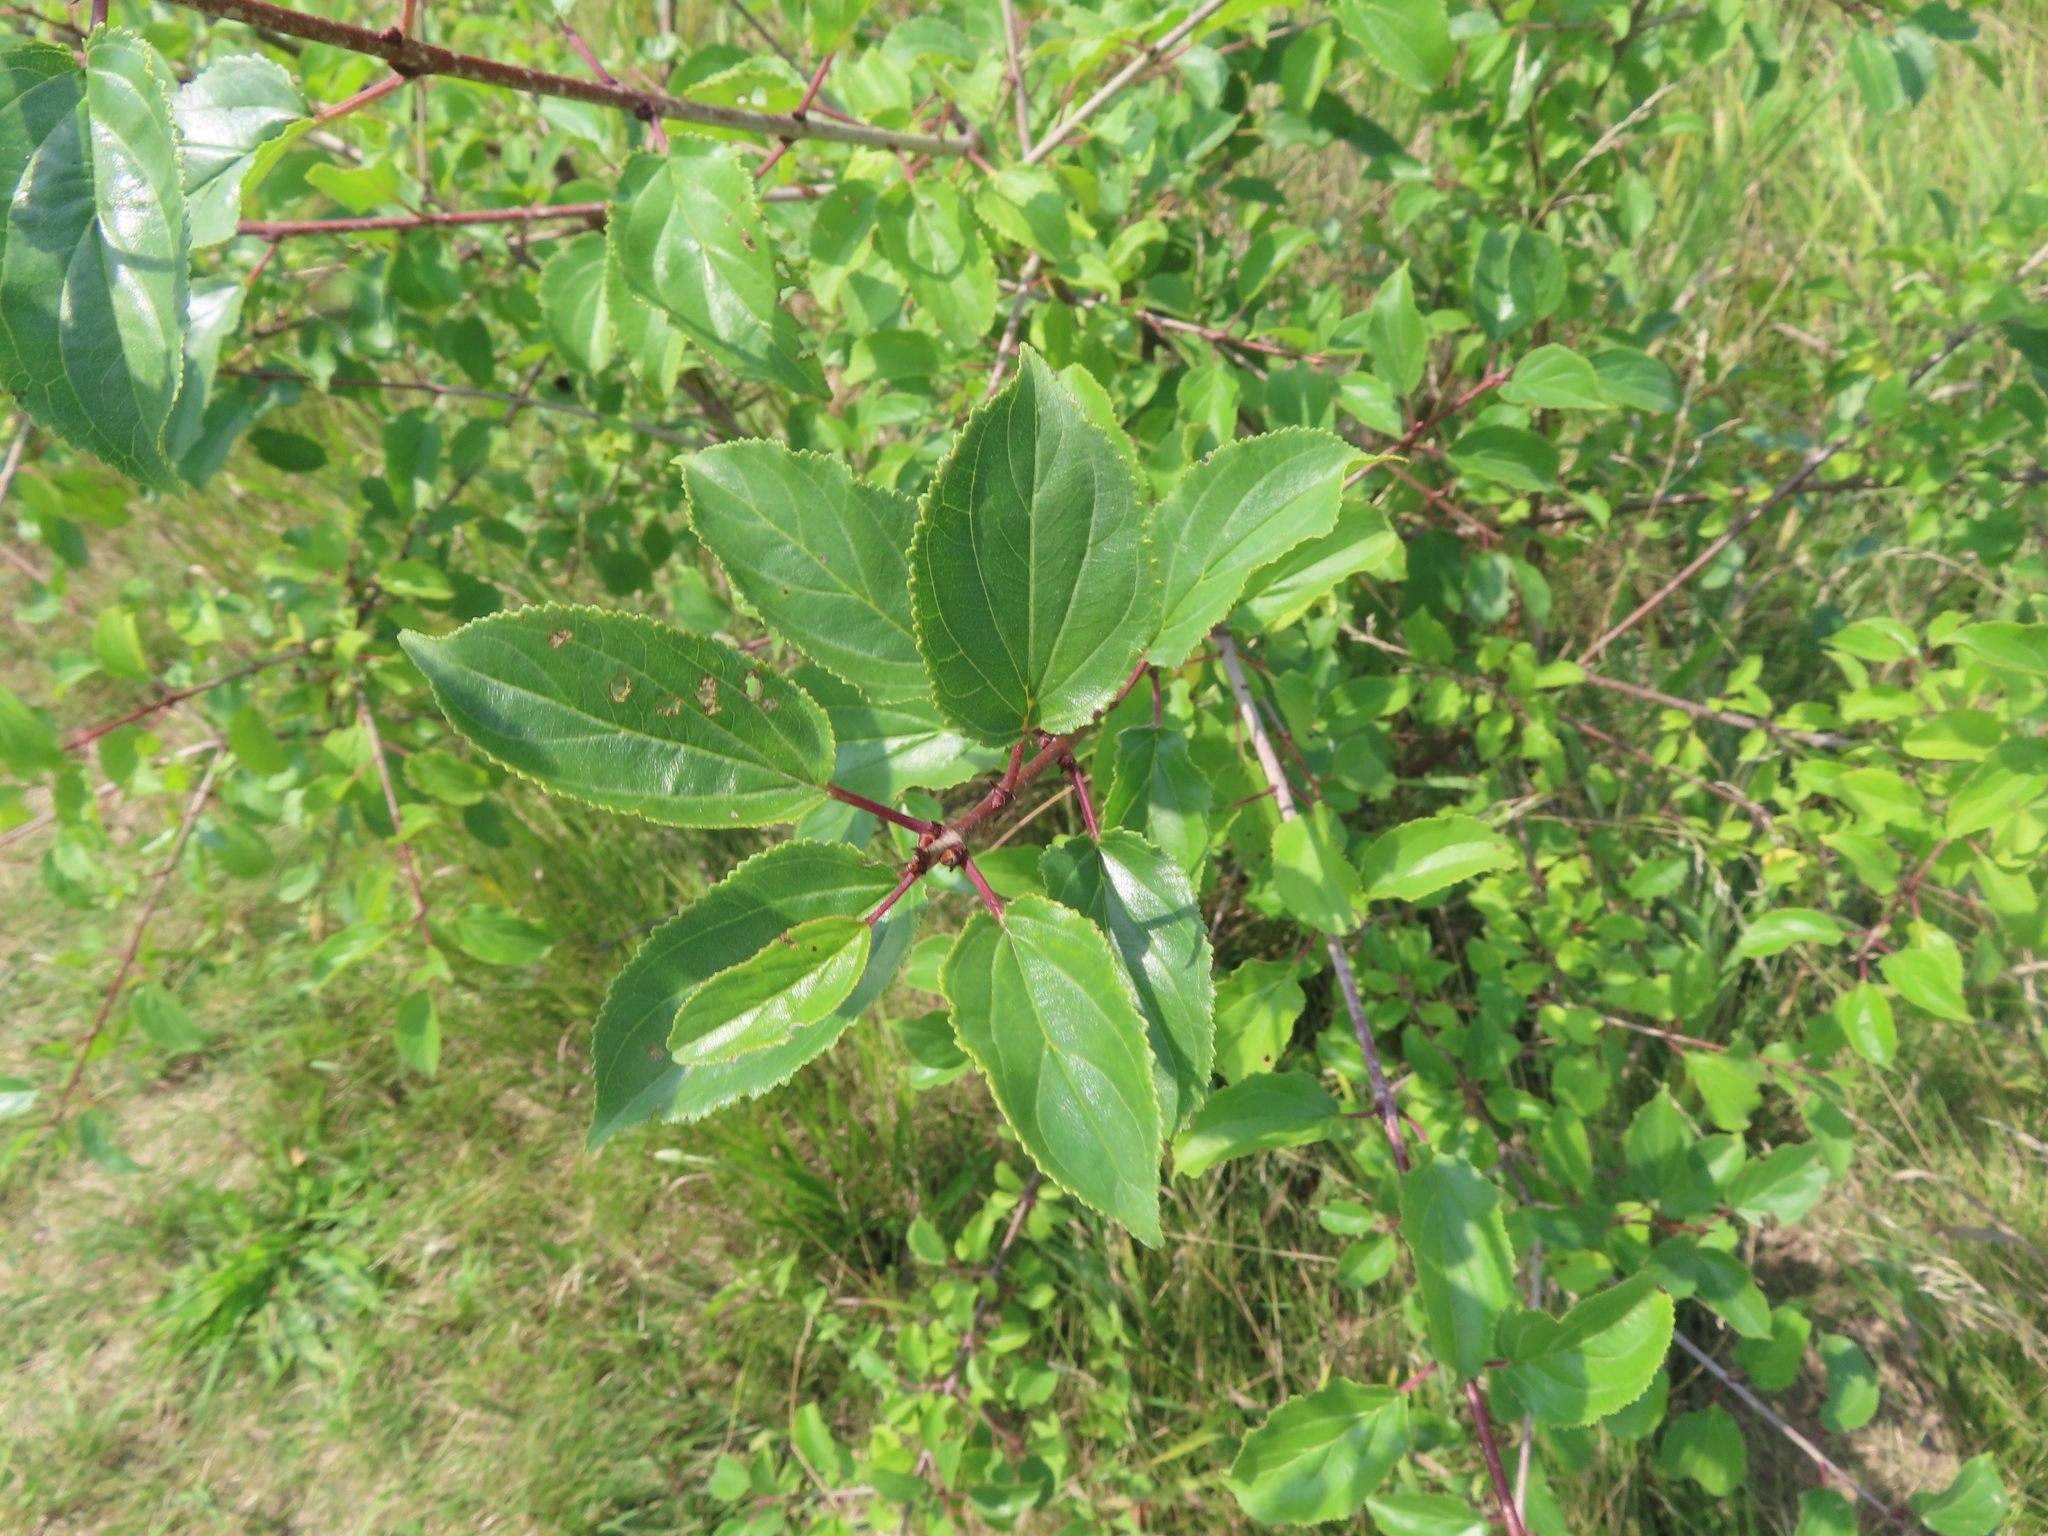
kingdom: Plantae
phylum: Tracheophyta
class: Magnoliopsida
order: Rosales
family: Rhamnaceae
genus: Rhamnus
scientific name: Rhamnus cathartica
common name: Common buckthorn
